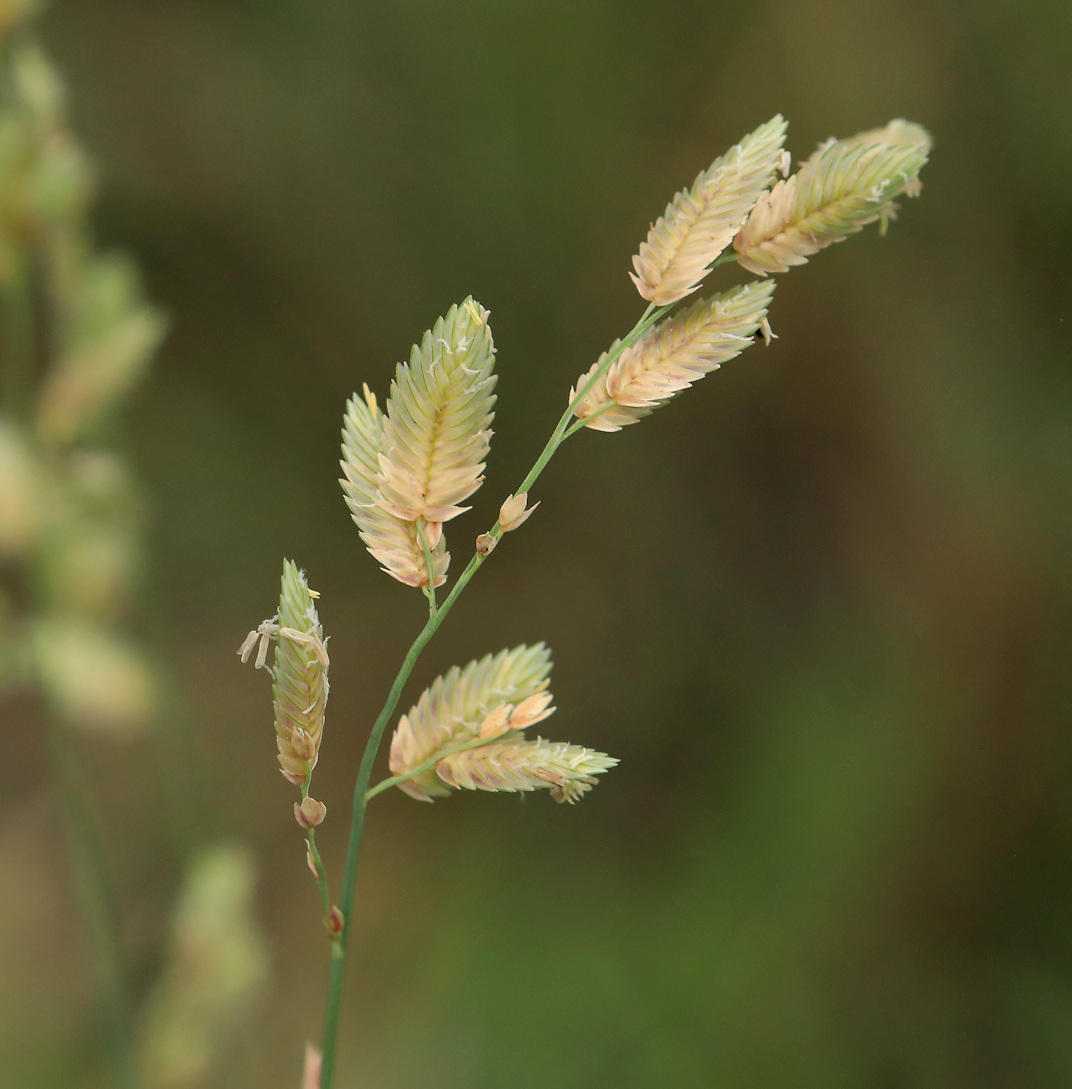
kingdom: Plantae
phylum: Tracheophyta
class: Liliopsida
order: Poales
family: Poaceae
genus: Eragrostis
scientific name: Eragrostis superba
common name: Wilman lovegrass
